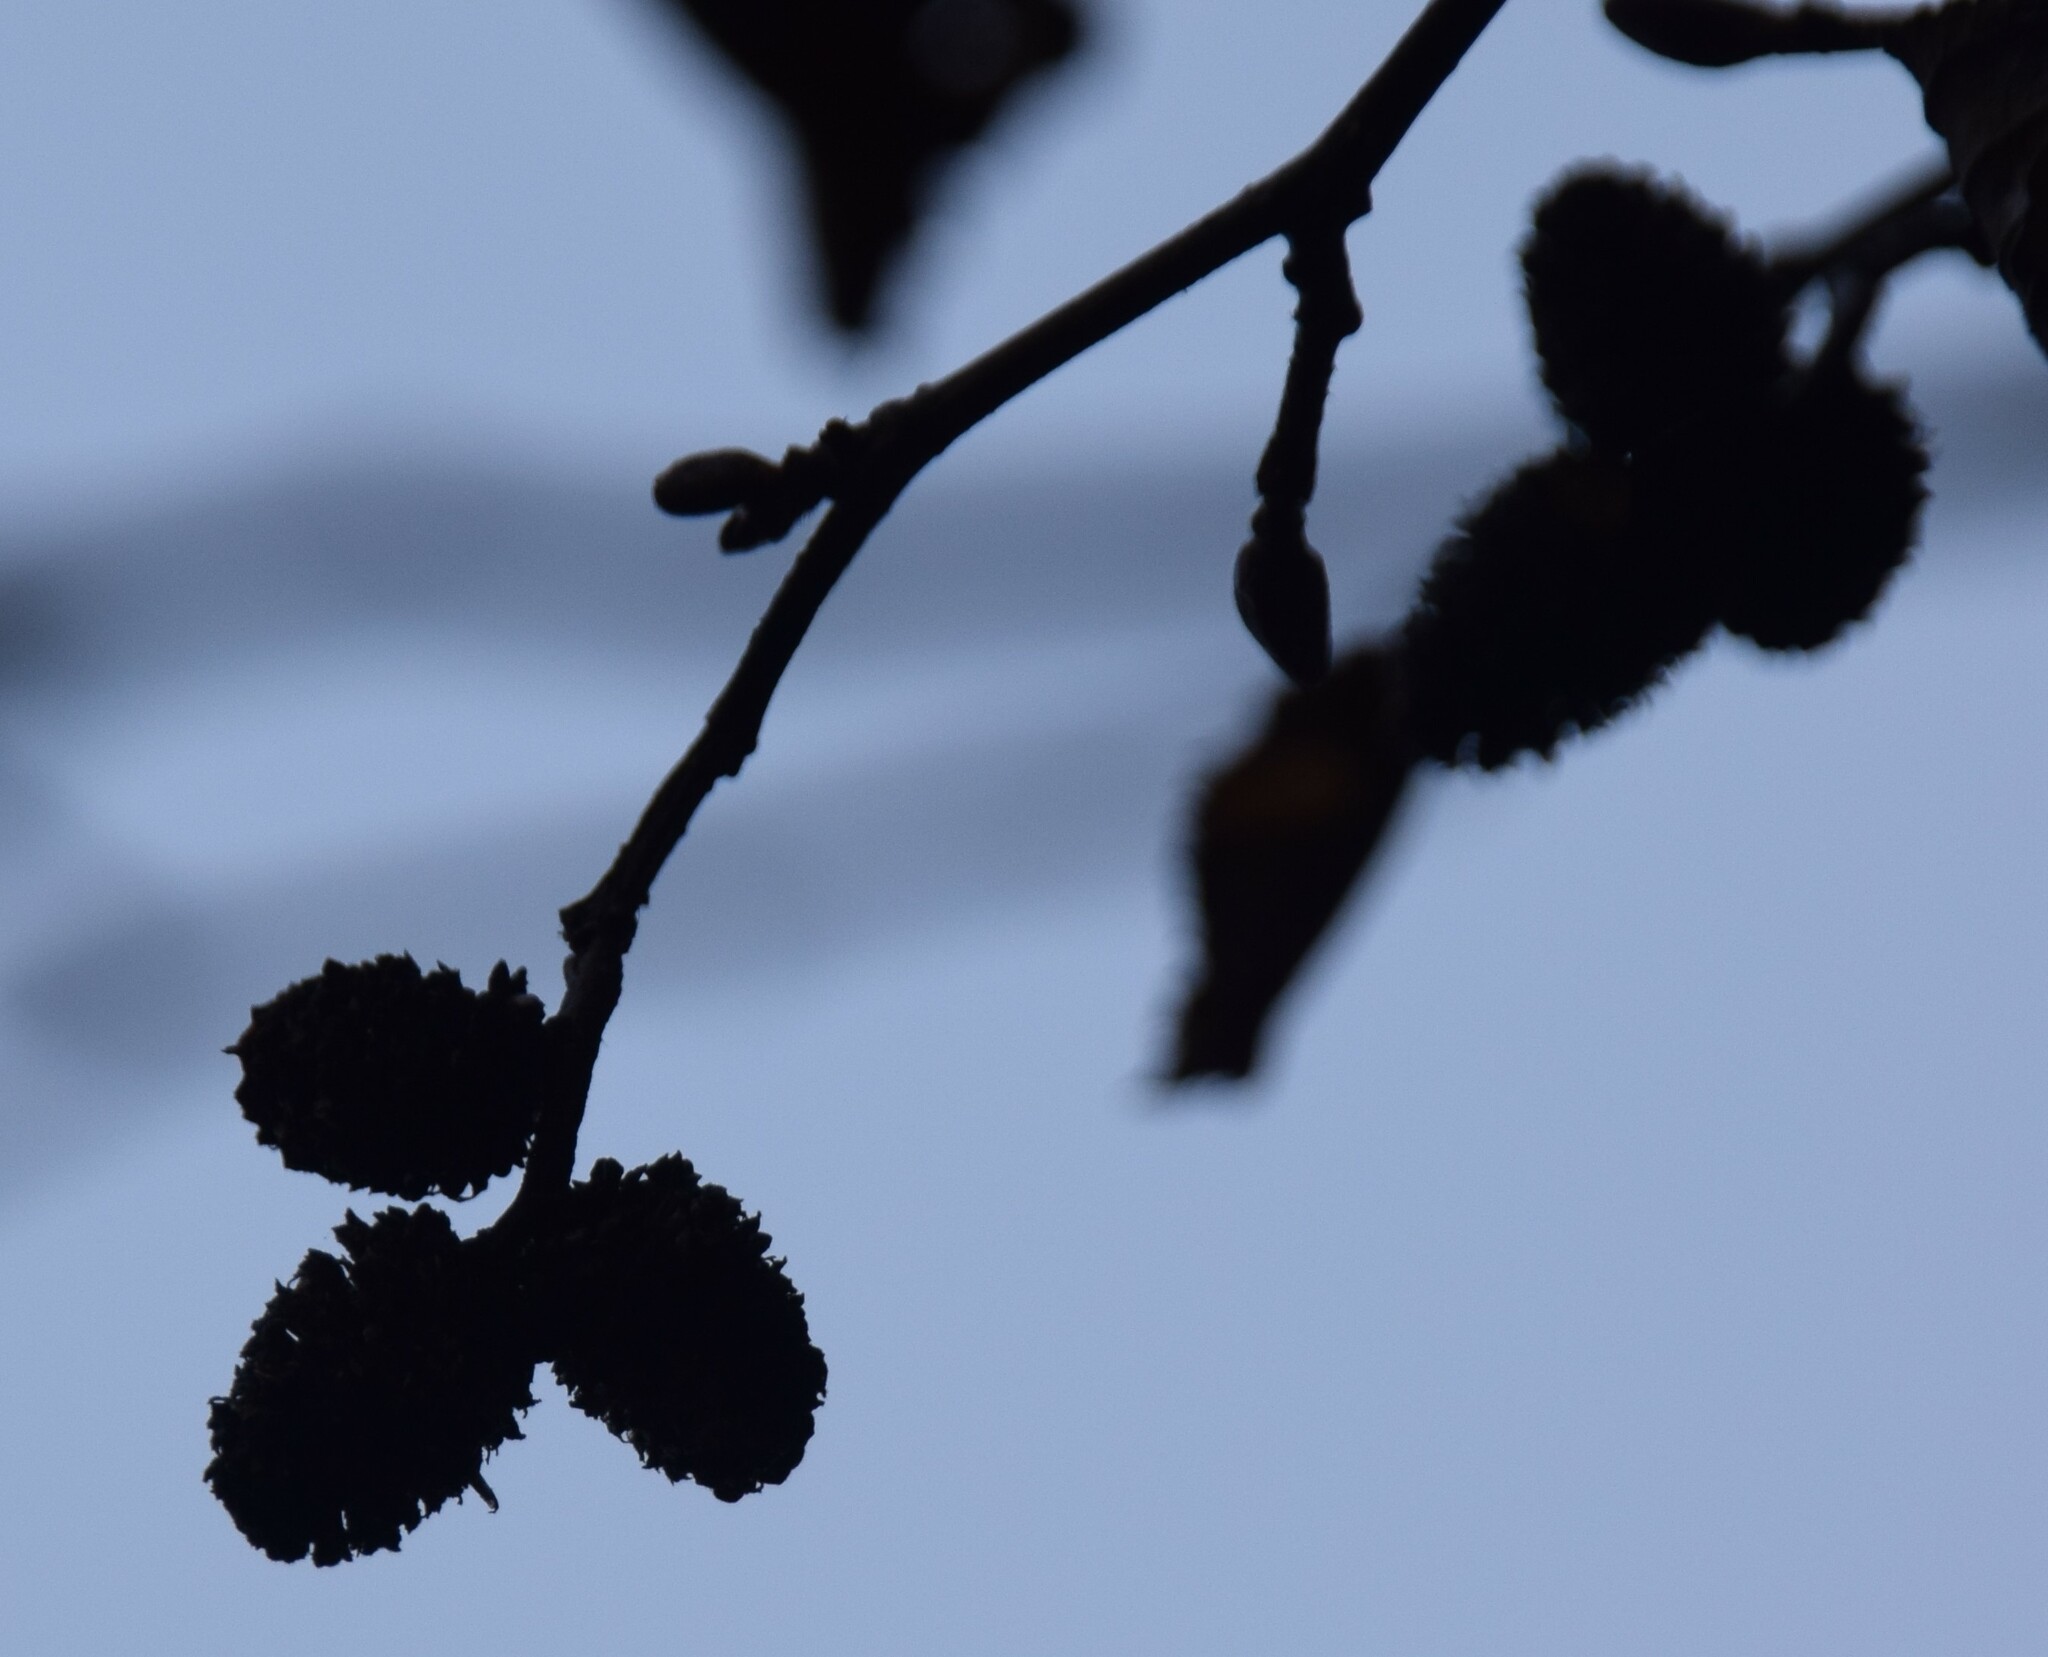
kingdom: Plantae
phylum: Tracheophyta
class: Magnoliopsida
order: Fagales
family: Betulaceae
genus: Alnus
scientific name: Alnus incana
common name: Grey alder
